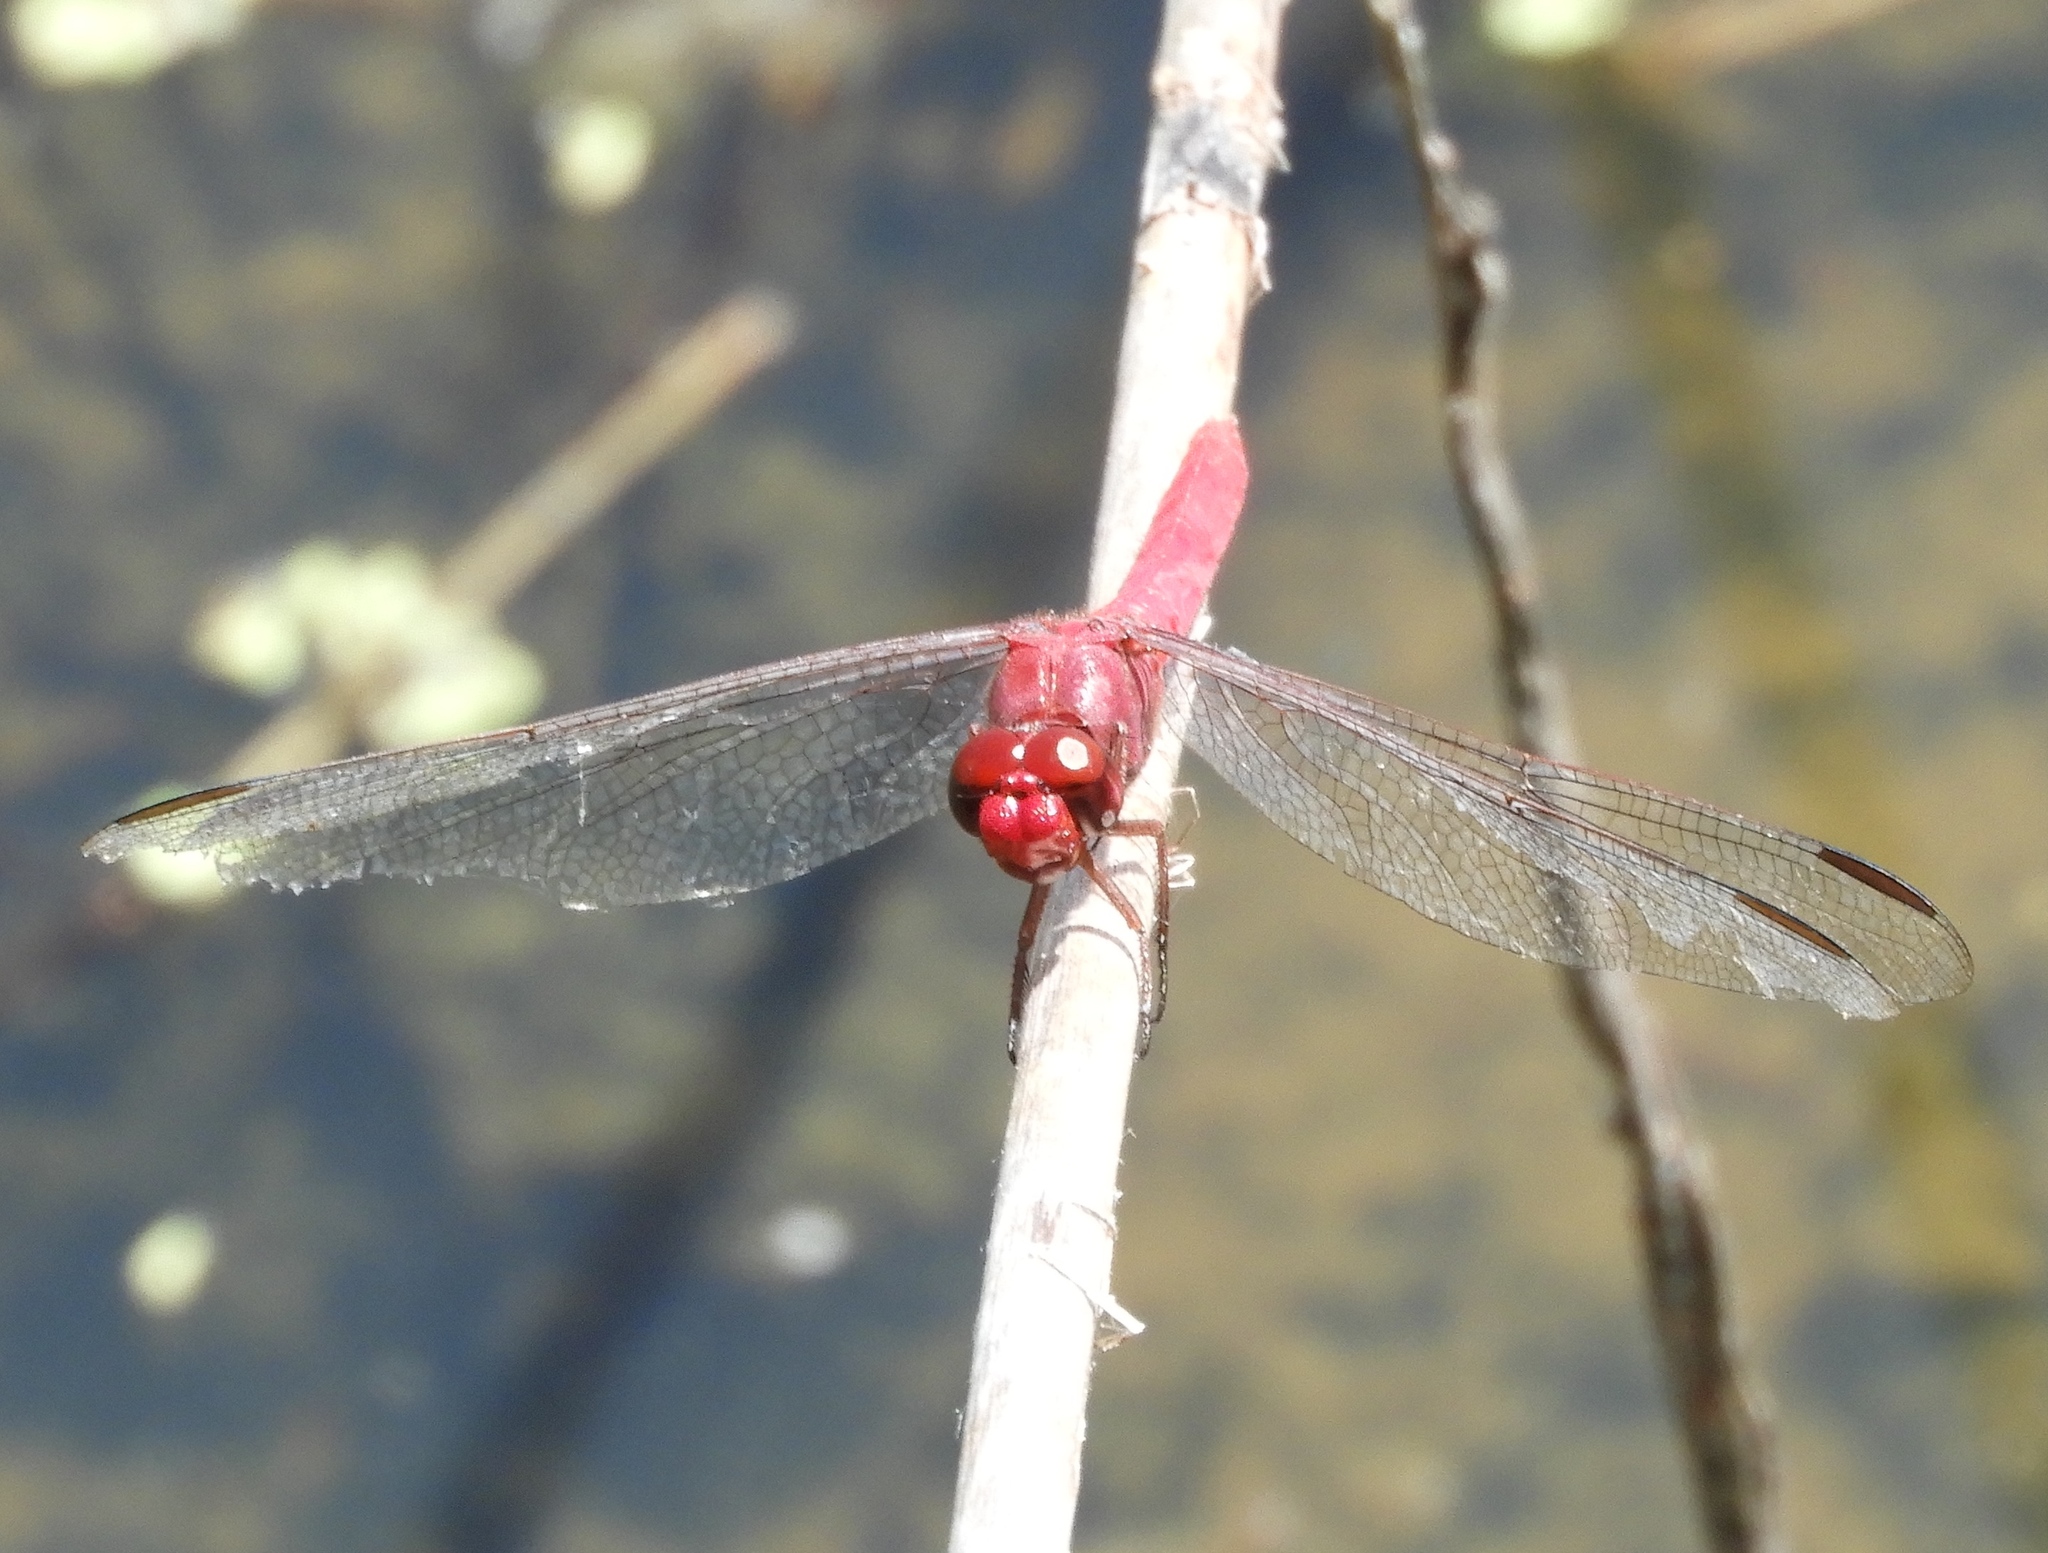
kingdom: Animalia
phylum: Arthropoda
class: Insecta
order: Odonata
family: Libellulidae
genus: Orthemis
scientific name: Orthemis discolor
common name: Carmine skimmer
